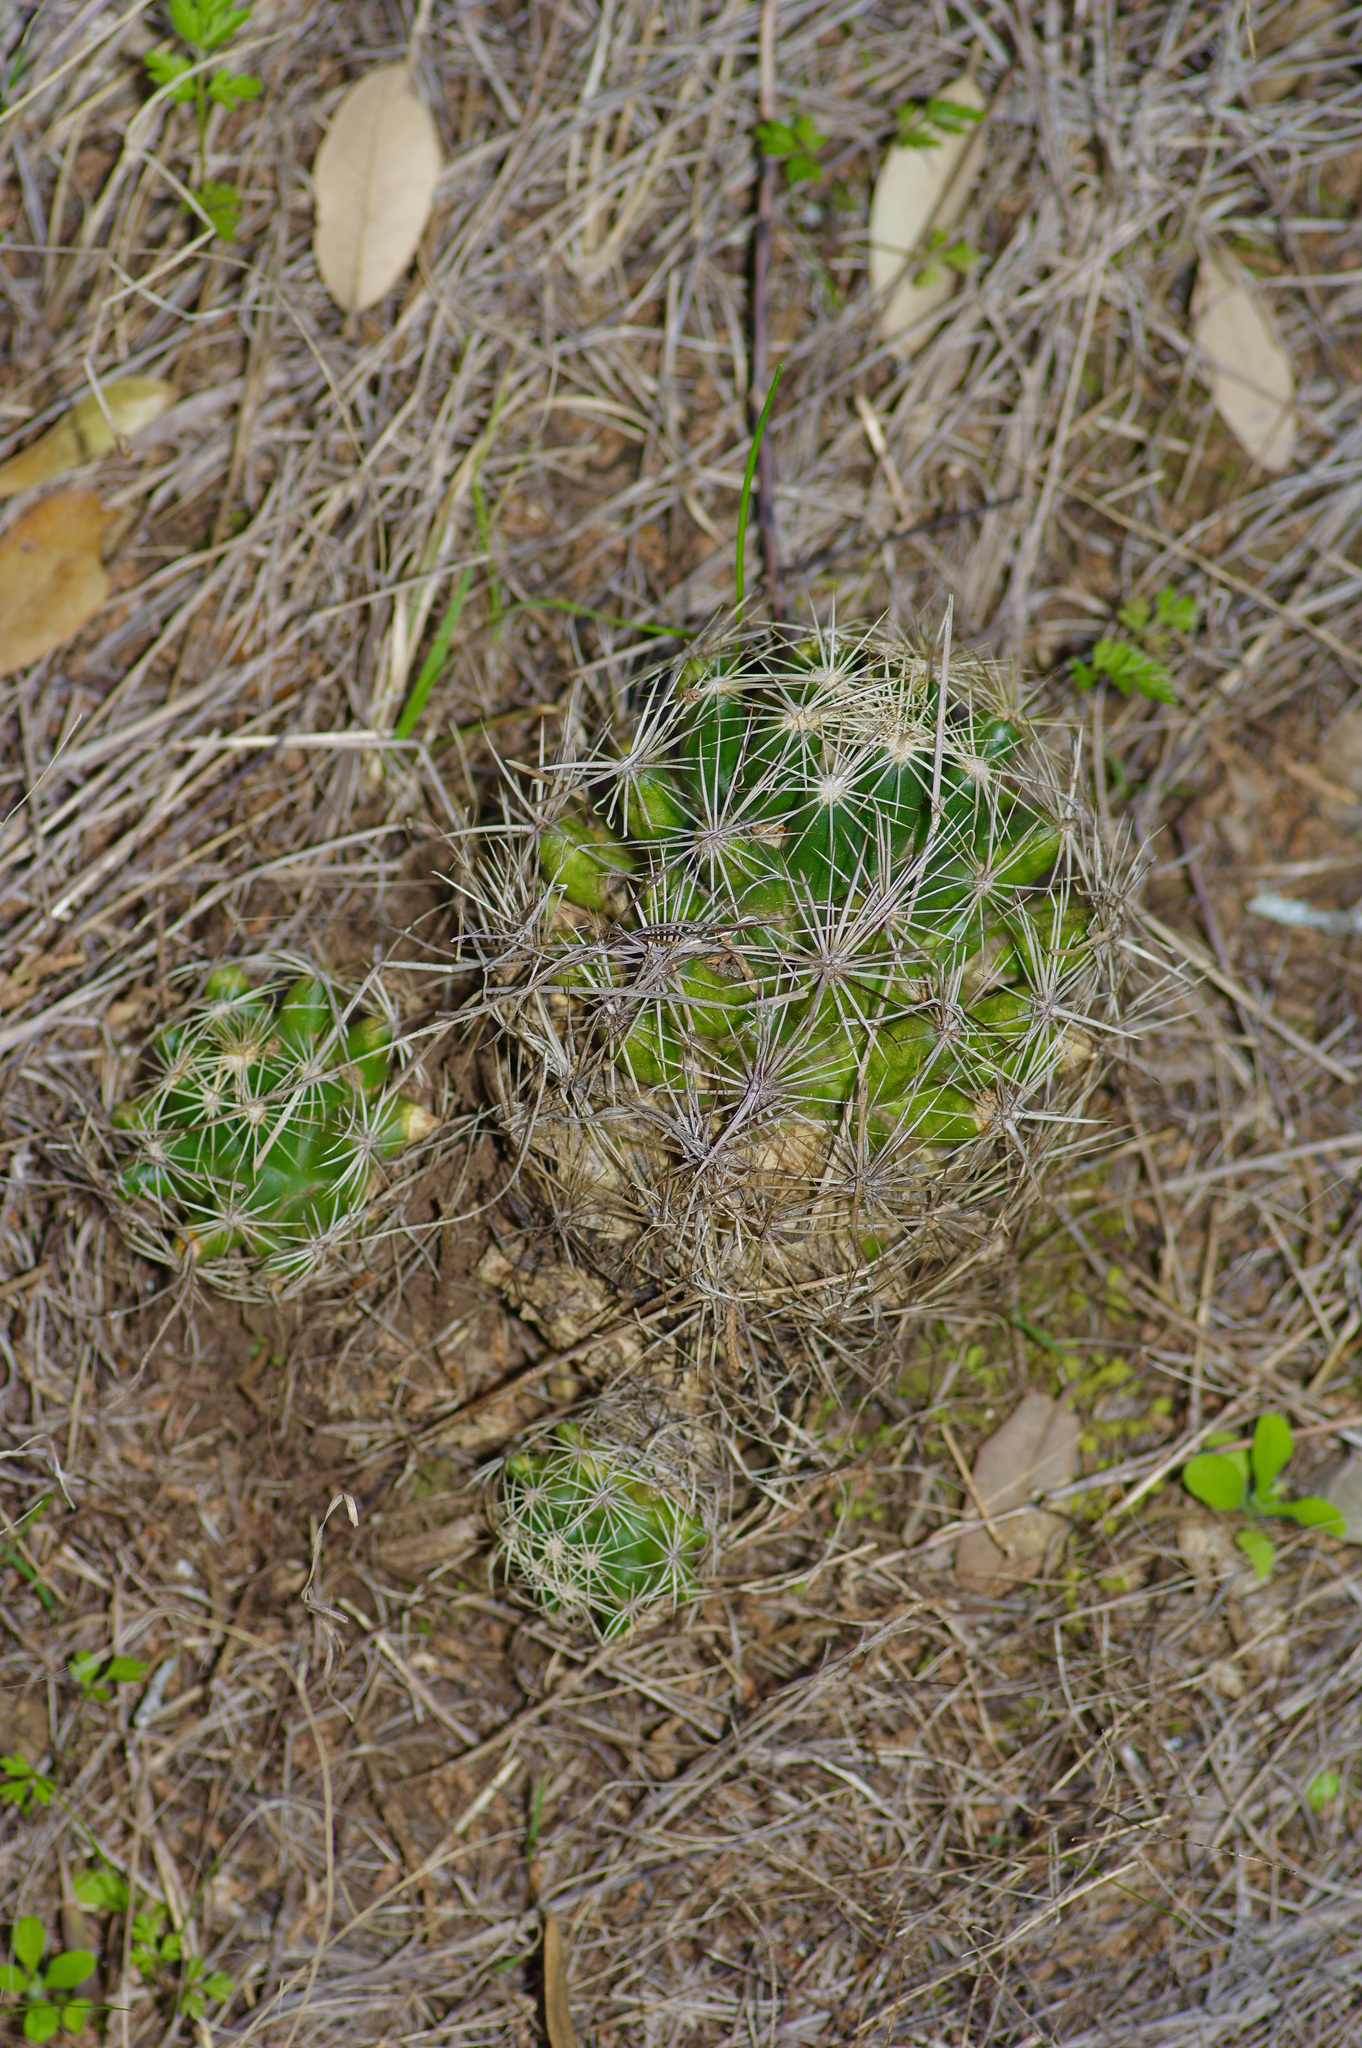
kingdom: Plantae
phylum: Tracheophyta
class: Magnoliopsida
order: Caryophyllales
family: Cactaceae
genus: Coryphantha
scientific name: Coryphantha sulcata
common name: Finger cactus
